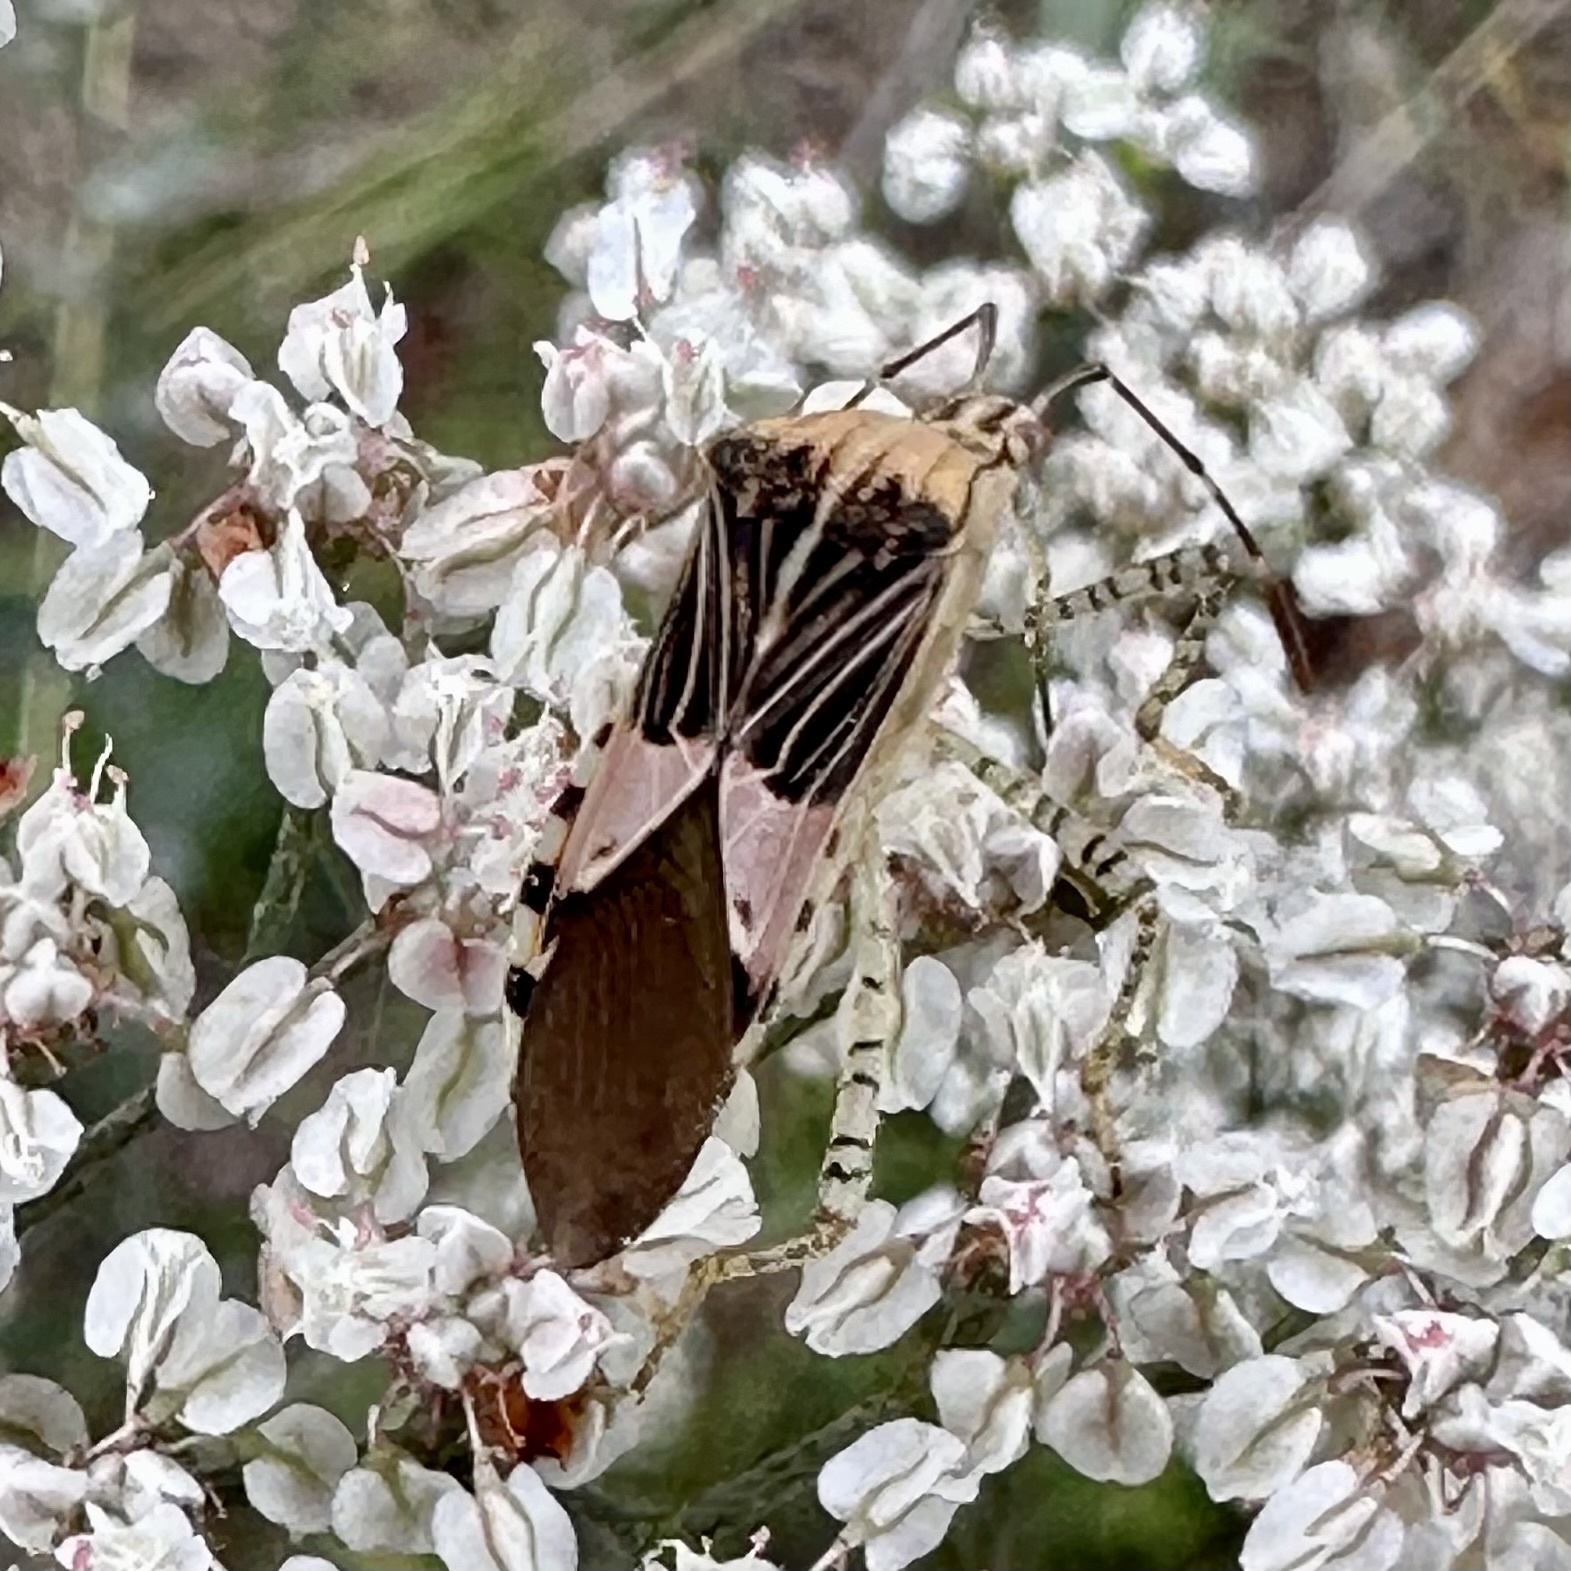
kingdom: Animalia
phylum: Arthropoda
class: Insecta
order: Hemiptera
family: Coreidae
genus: Hypselonotus
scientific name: Hypselonotus punctiventris
